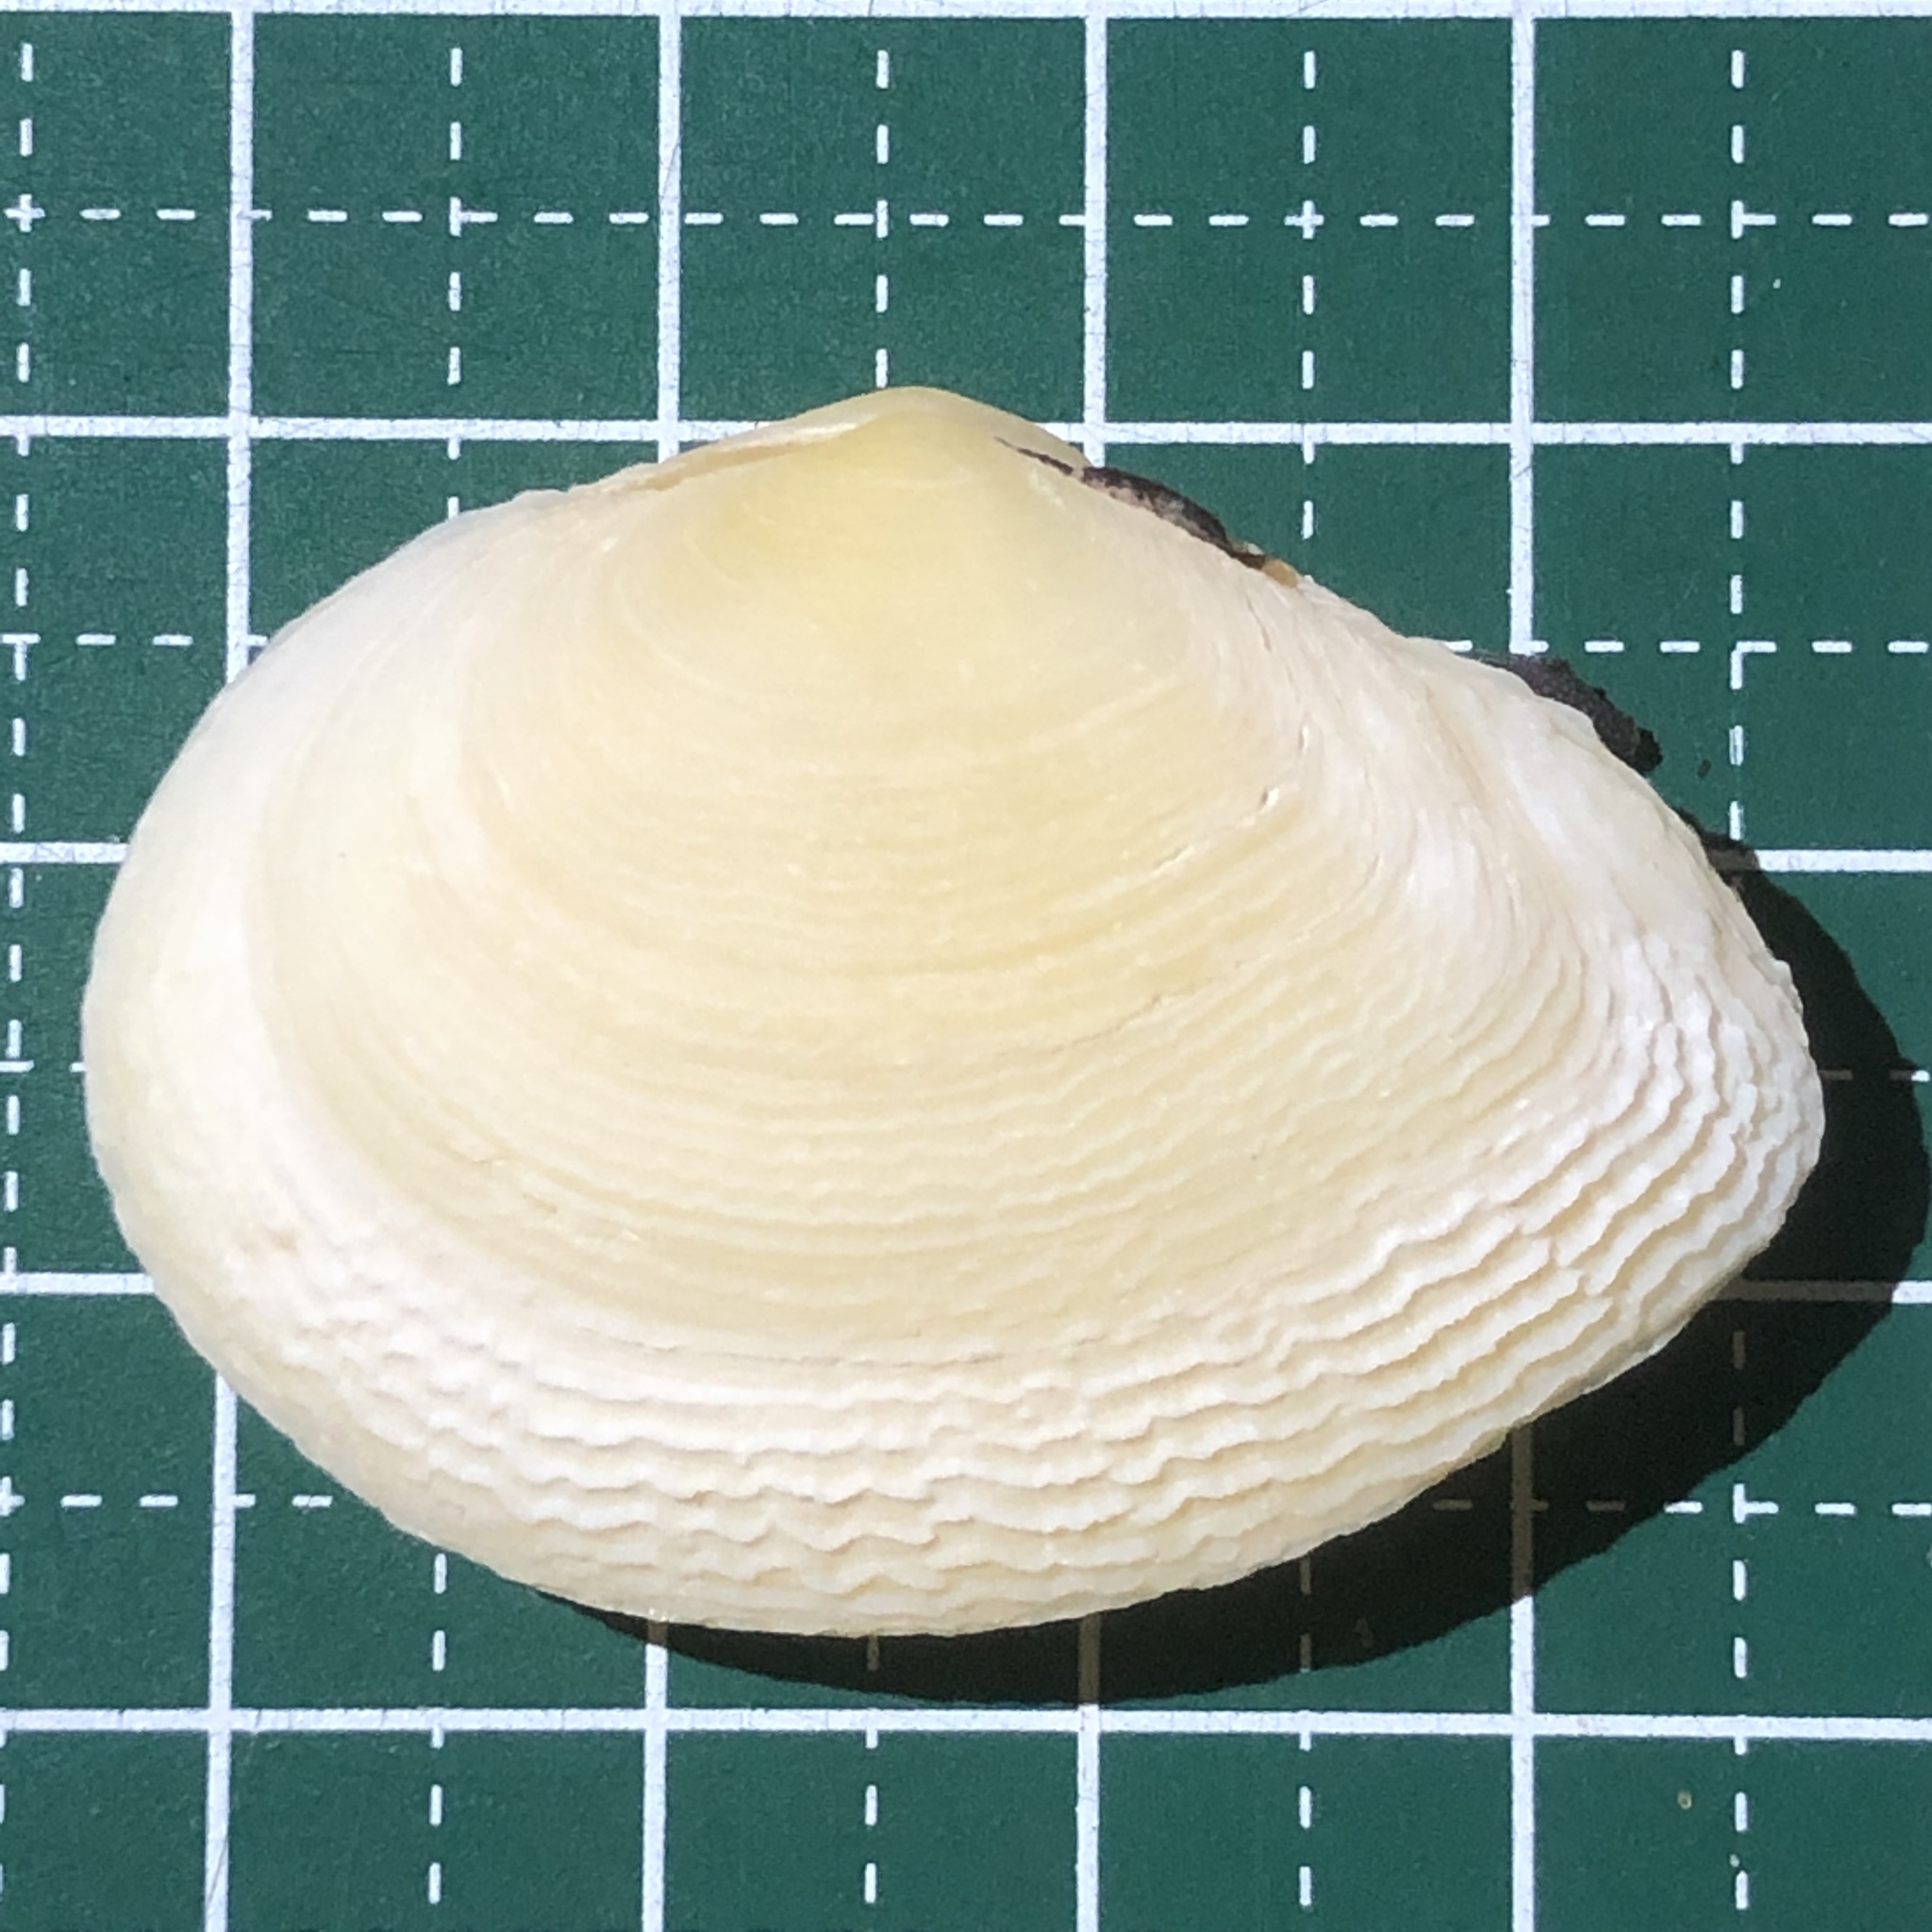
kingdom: Animalia
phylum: Mollusca
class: Bivalvia
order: Cardiida
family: Tellinidae
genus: Quidnipagus
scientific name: Quidnipagus palatam
